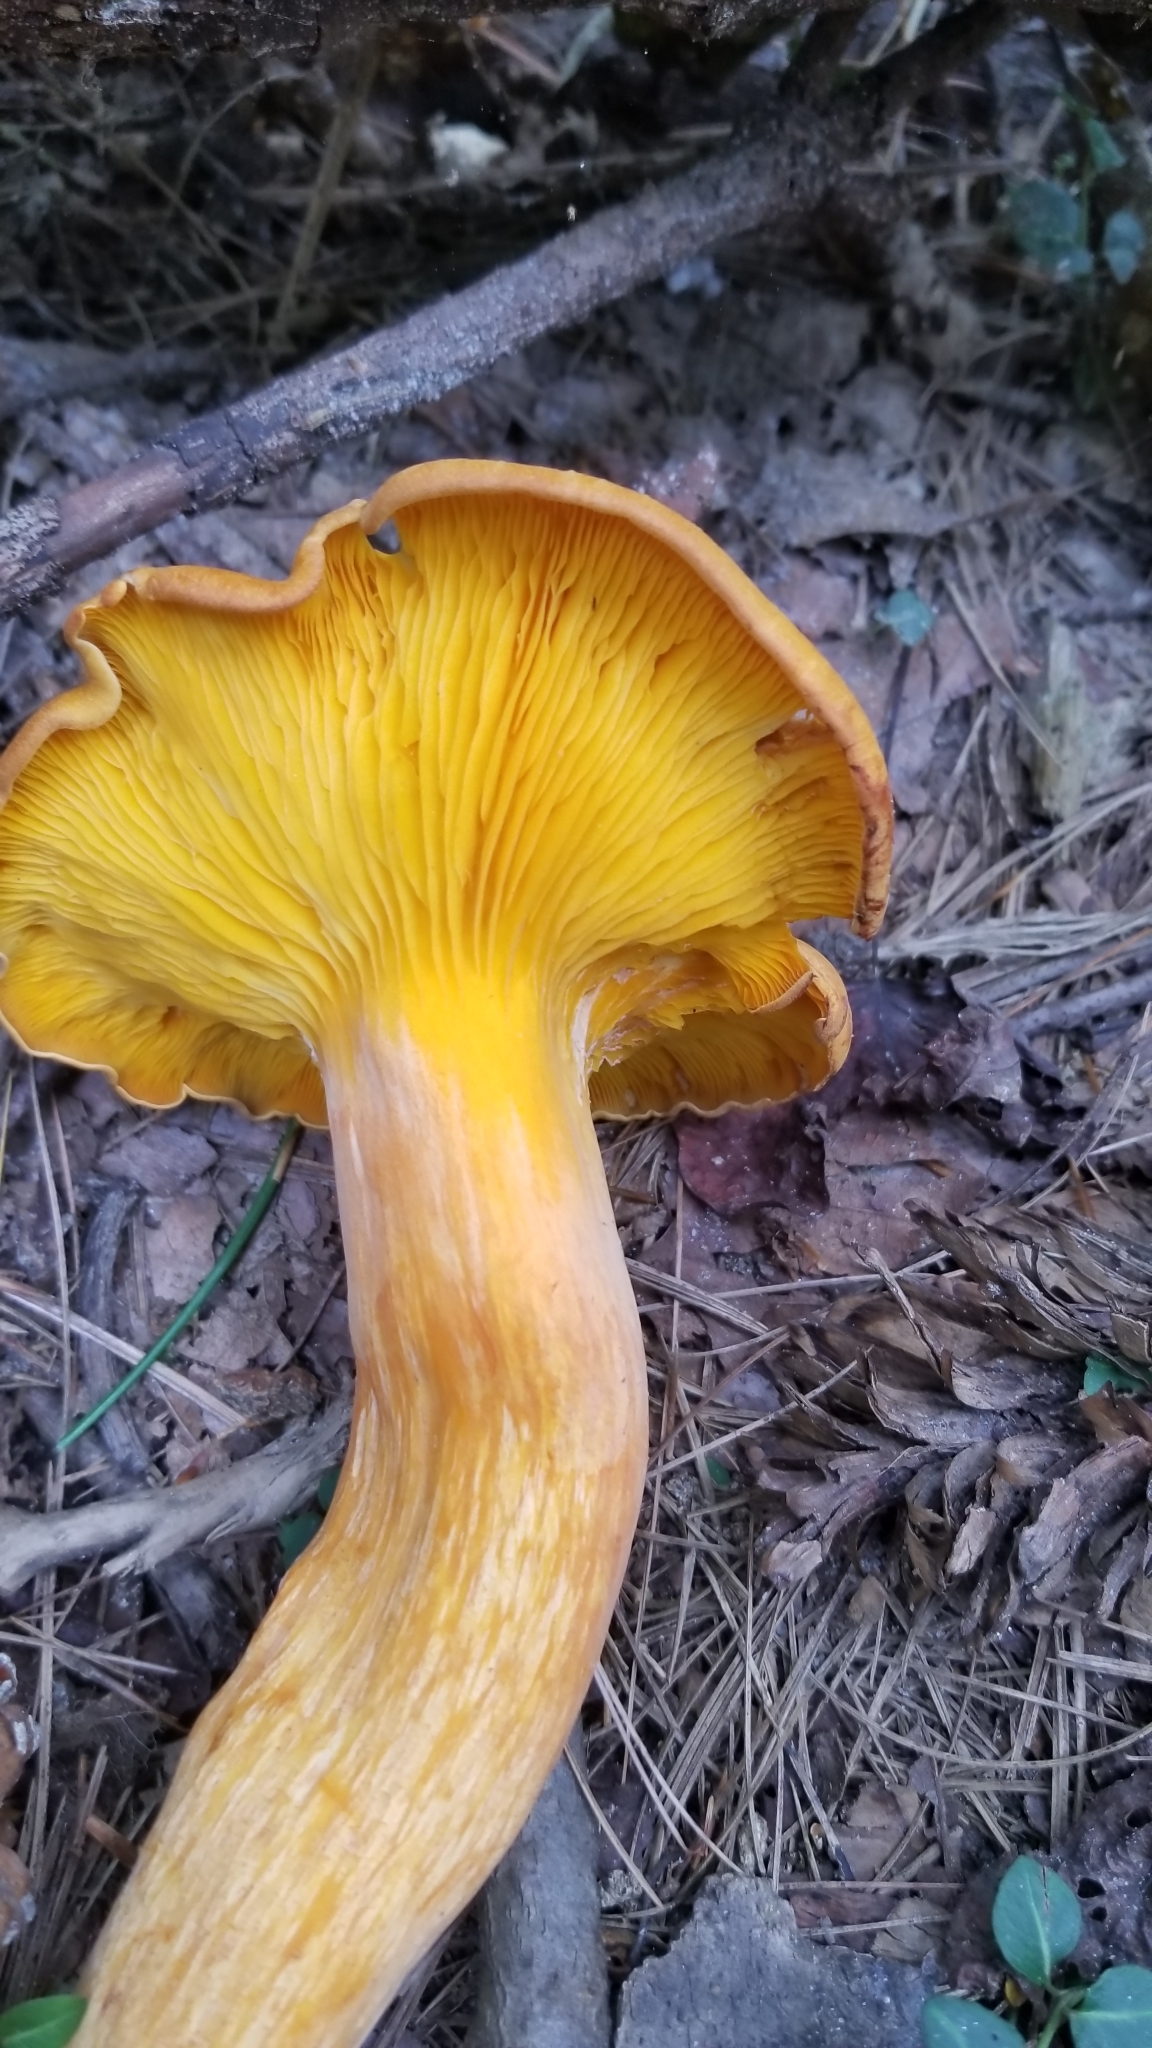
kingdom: Fungi
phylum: Basidiomycota
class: Agaricomycetes
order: Agaricales
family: Omphalotaceae
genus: Omphalotus
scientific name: Omphalotus illudens
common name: Jack o lantern
